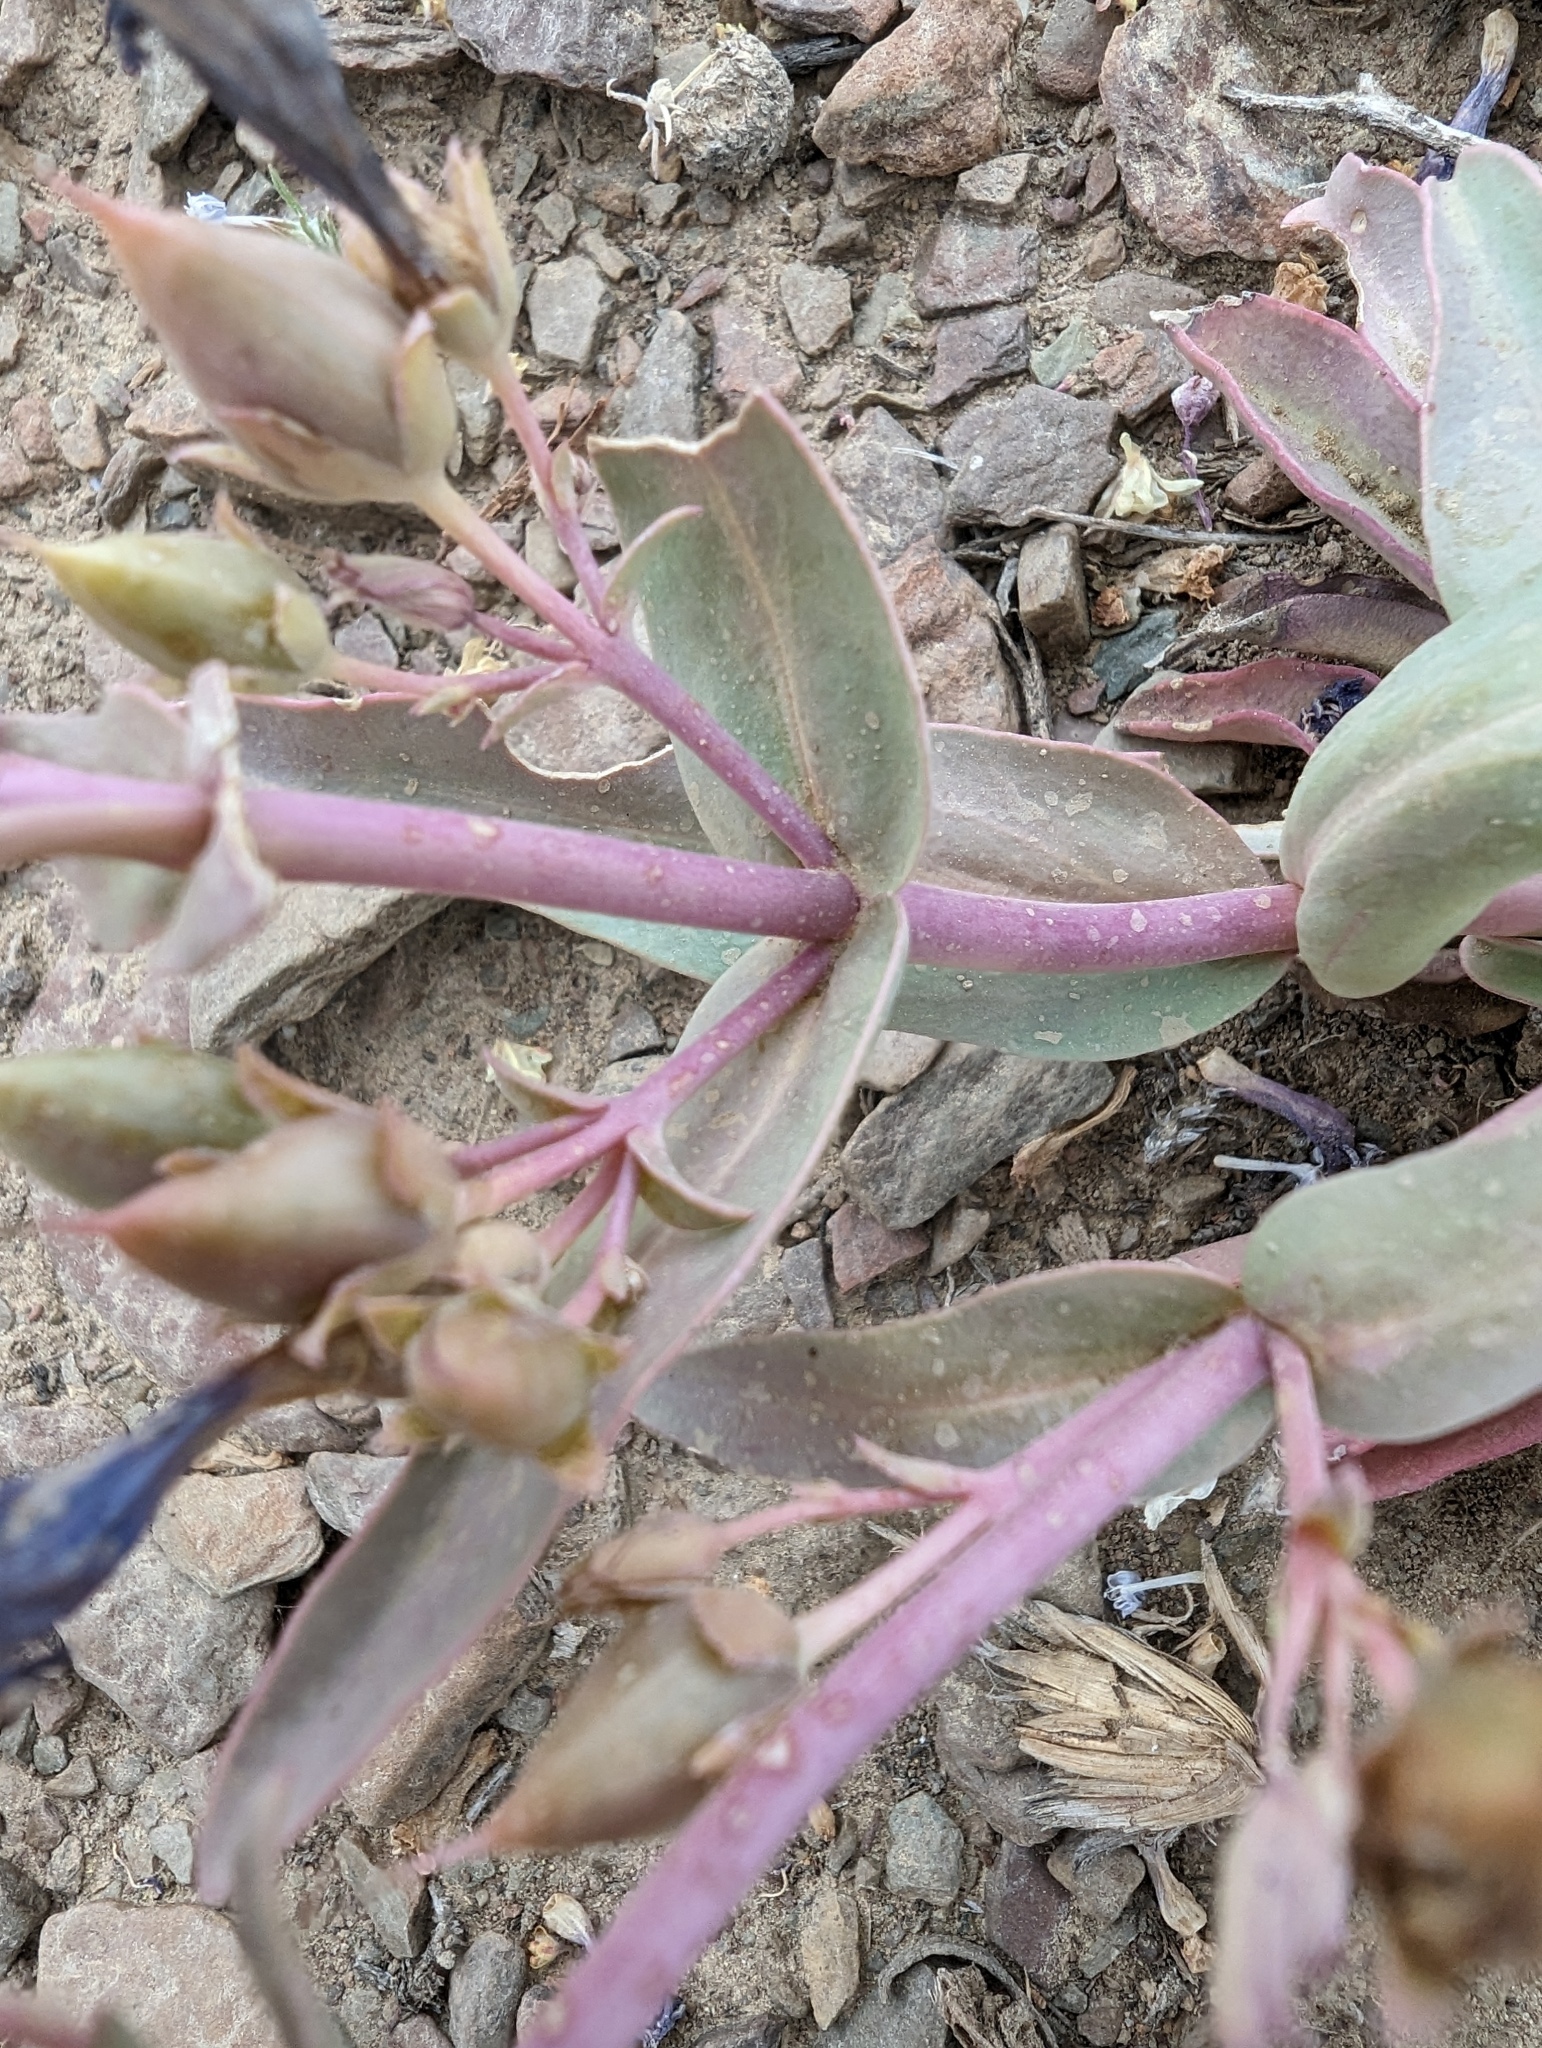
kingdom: Plantae
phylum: Tracheophyta
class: Magnoliopsida
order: Lamiales
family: Plantaginaceae
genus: Penstemon
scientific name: Penstemon patens
